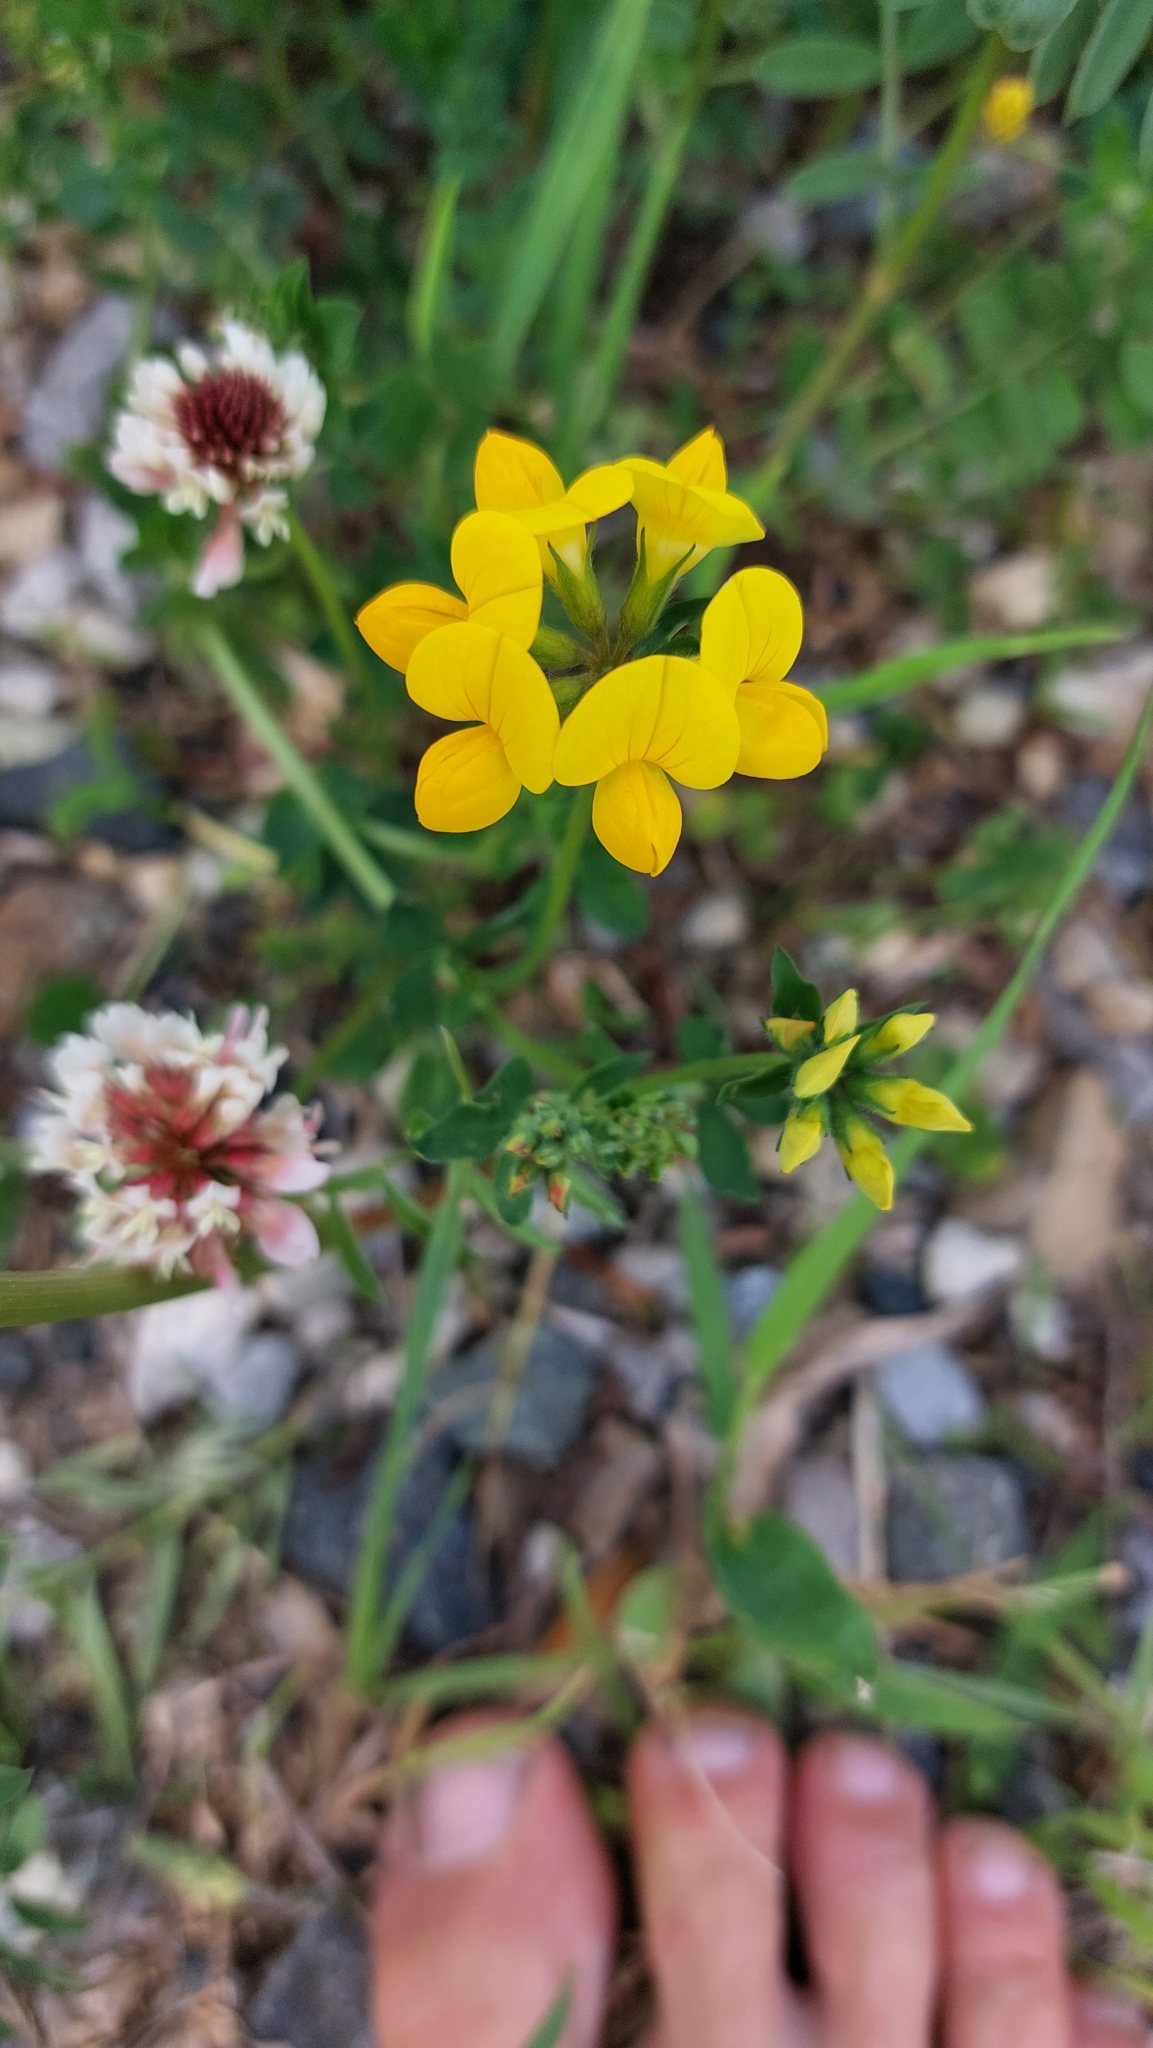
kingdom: Plantae
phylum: Tracheophyta
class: Magnoliopsida
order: Fabales
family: Fabaceae
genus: Lotus
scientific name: Lotus corniculatus
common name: Common bird's-foot-trefoil
